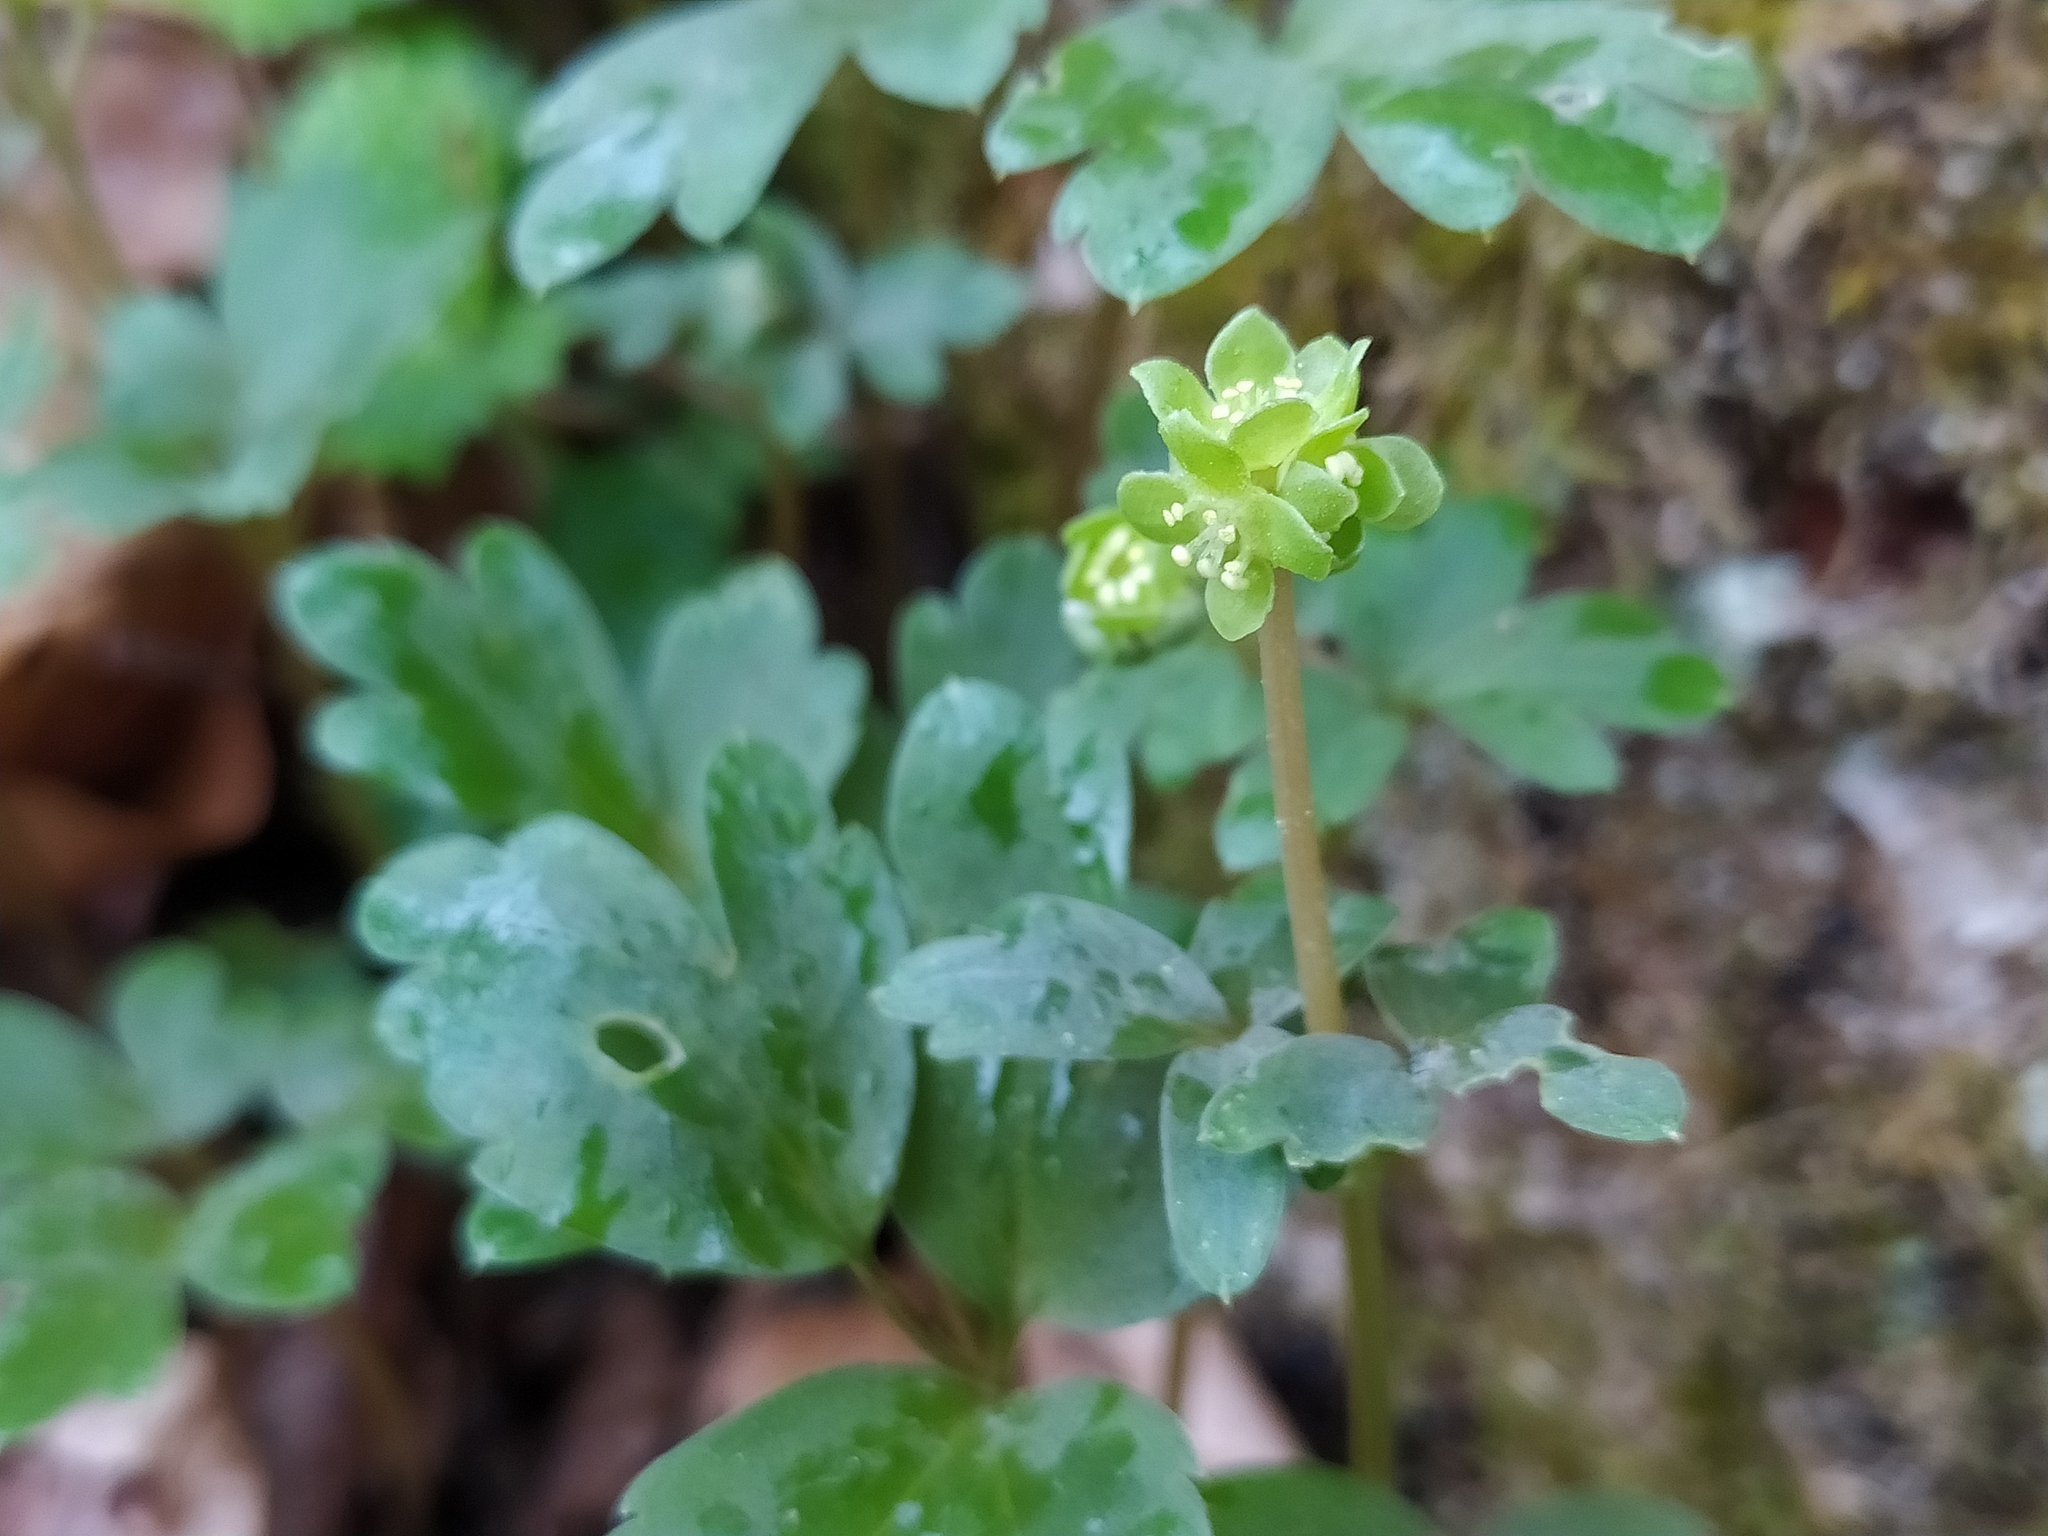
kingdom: Plantae
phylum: Tracheophyta
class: Magnoliopsida
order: Dipsacales
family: Viburnaceae
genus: Adoxa
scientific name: Adoxa moschatellina
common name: Moschatel
